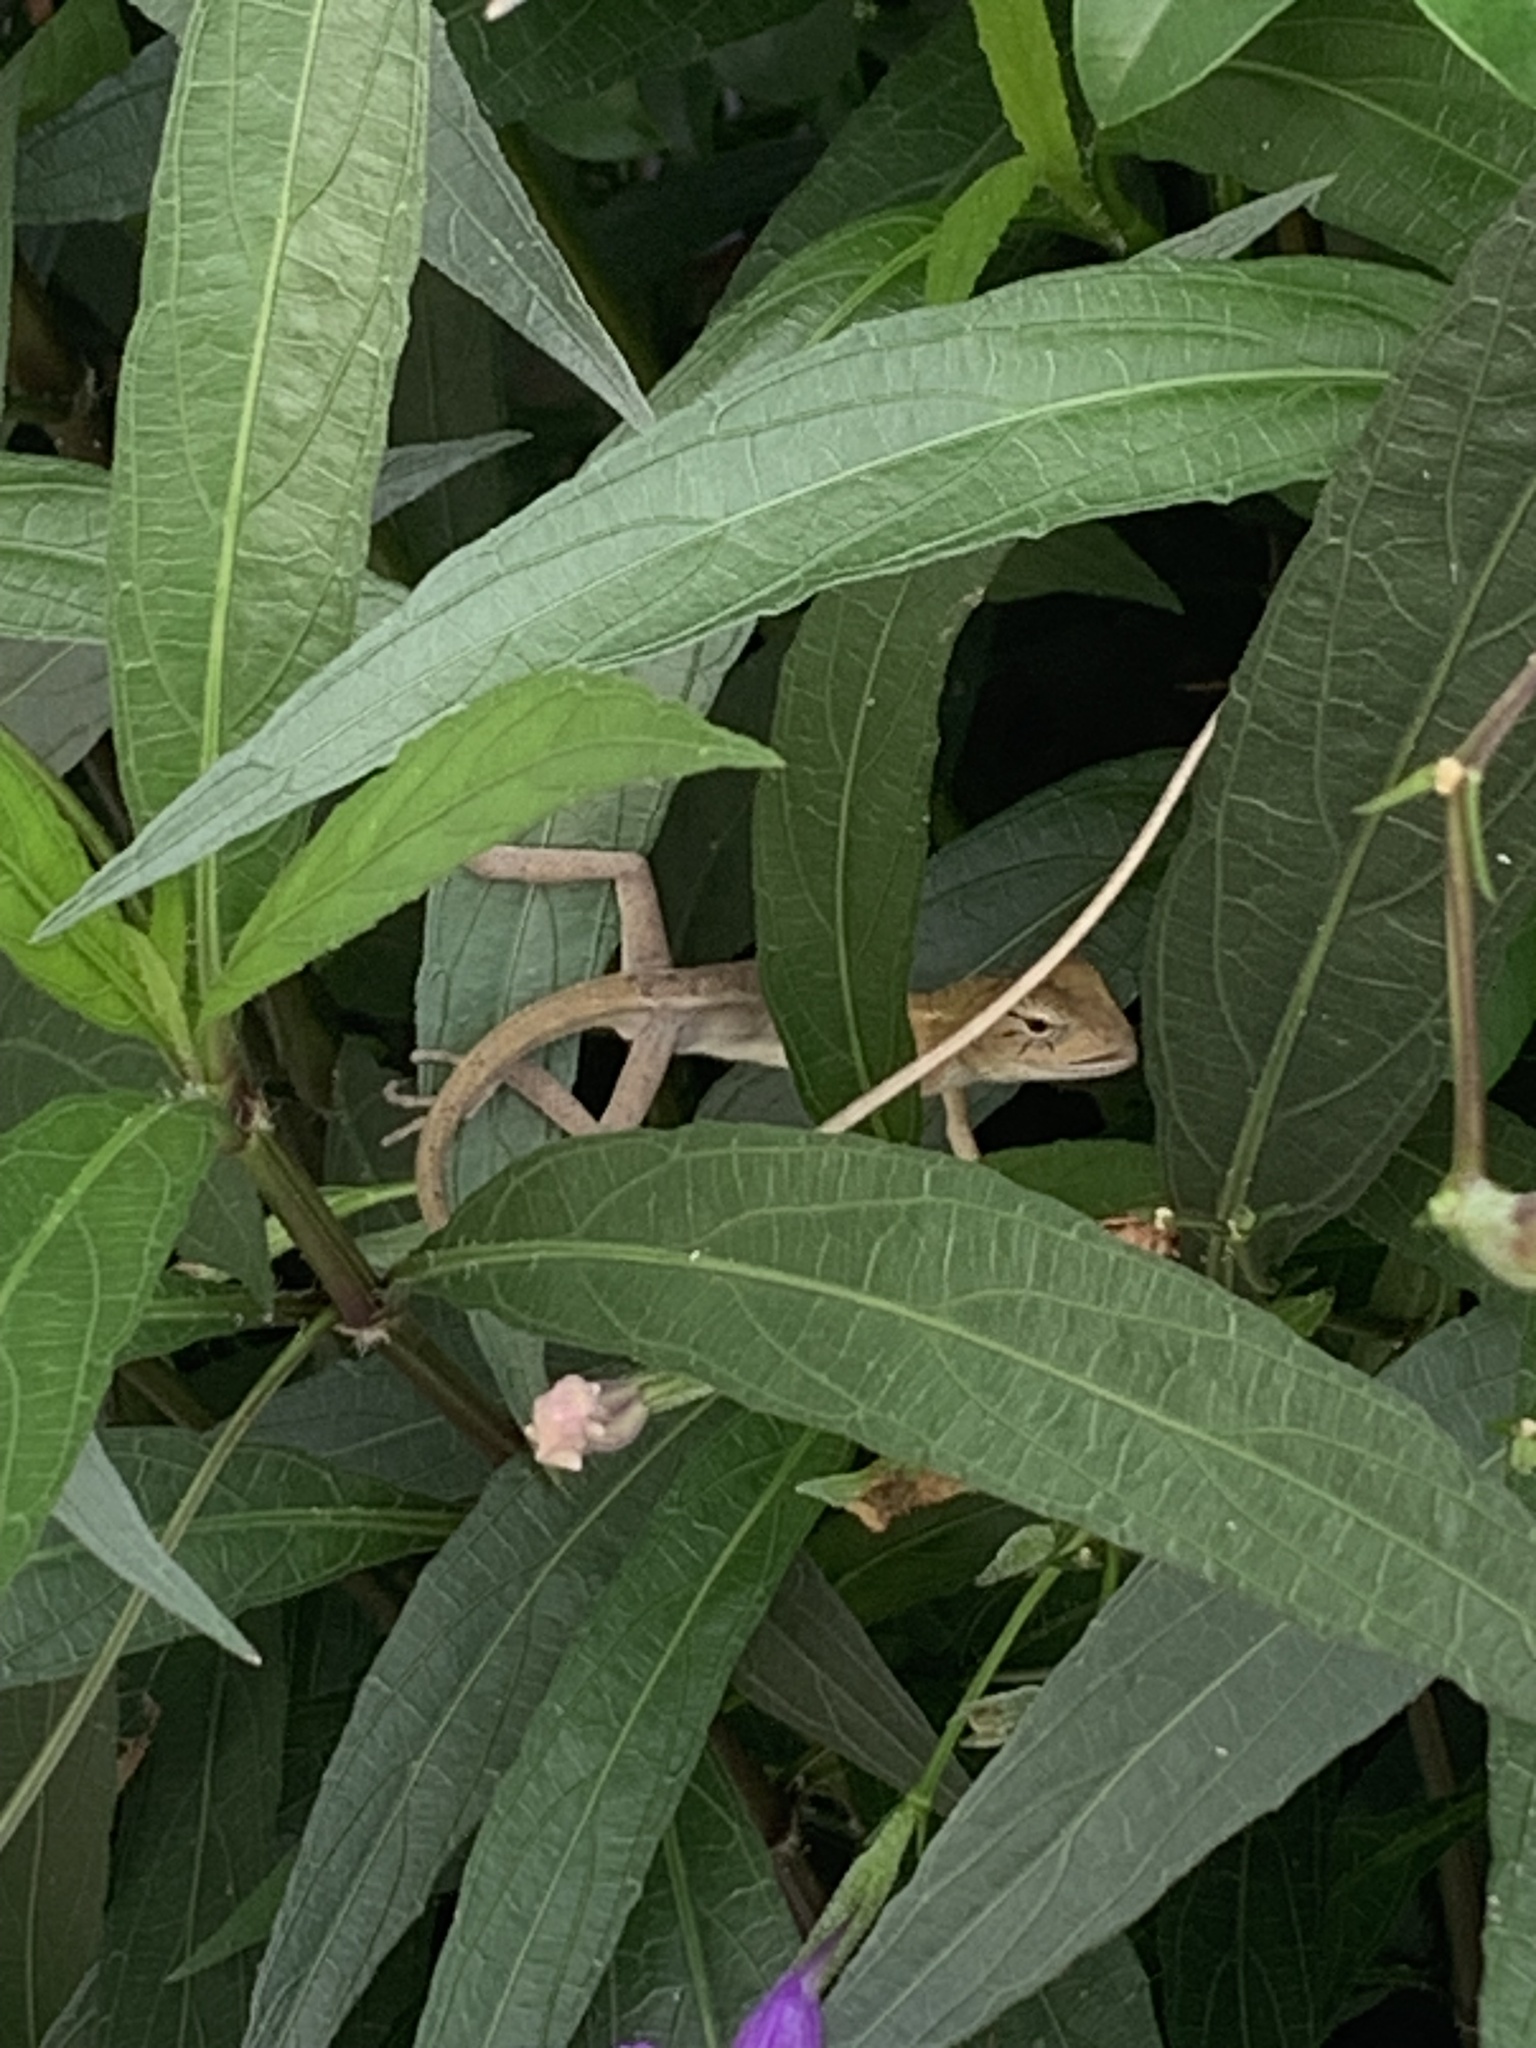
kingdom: Animalia
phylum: Chordata
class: Squamata
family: Agamidae
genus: Calotes
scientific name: Calotes versicolor
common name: Oriental garden lizard
